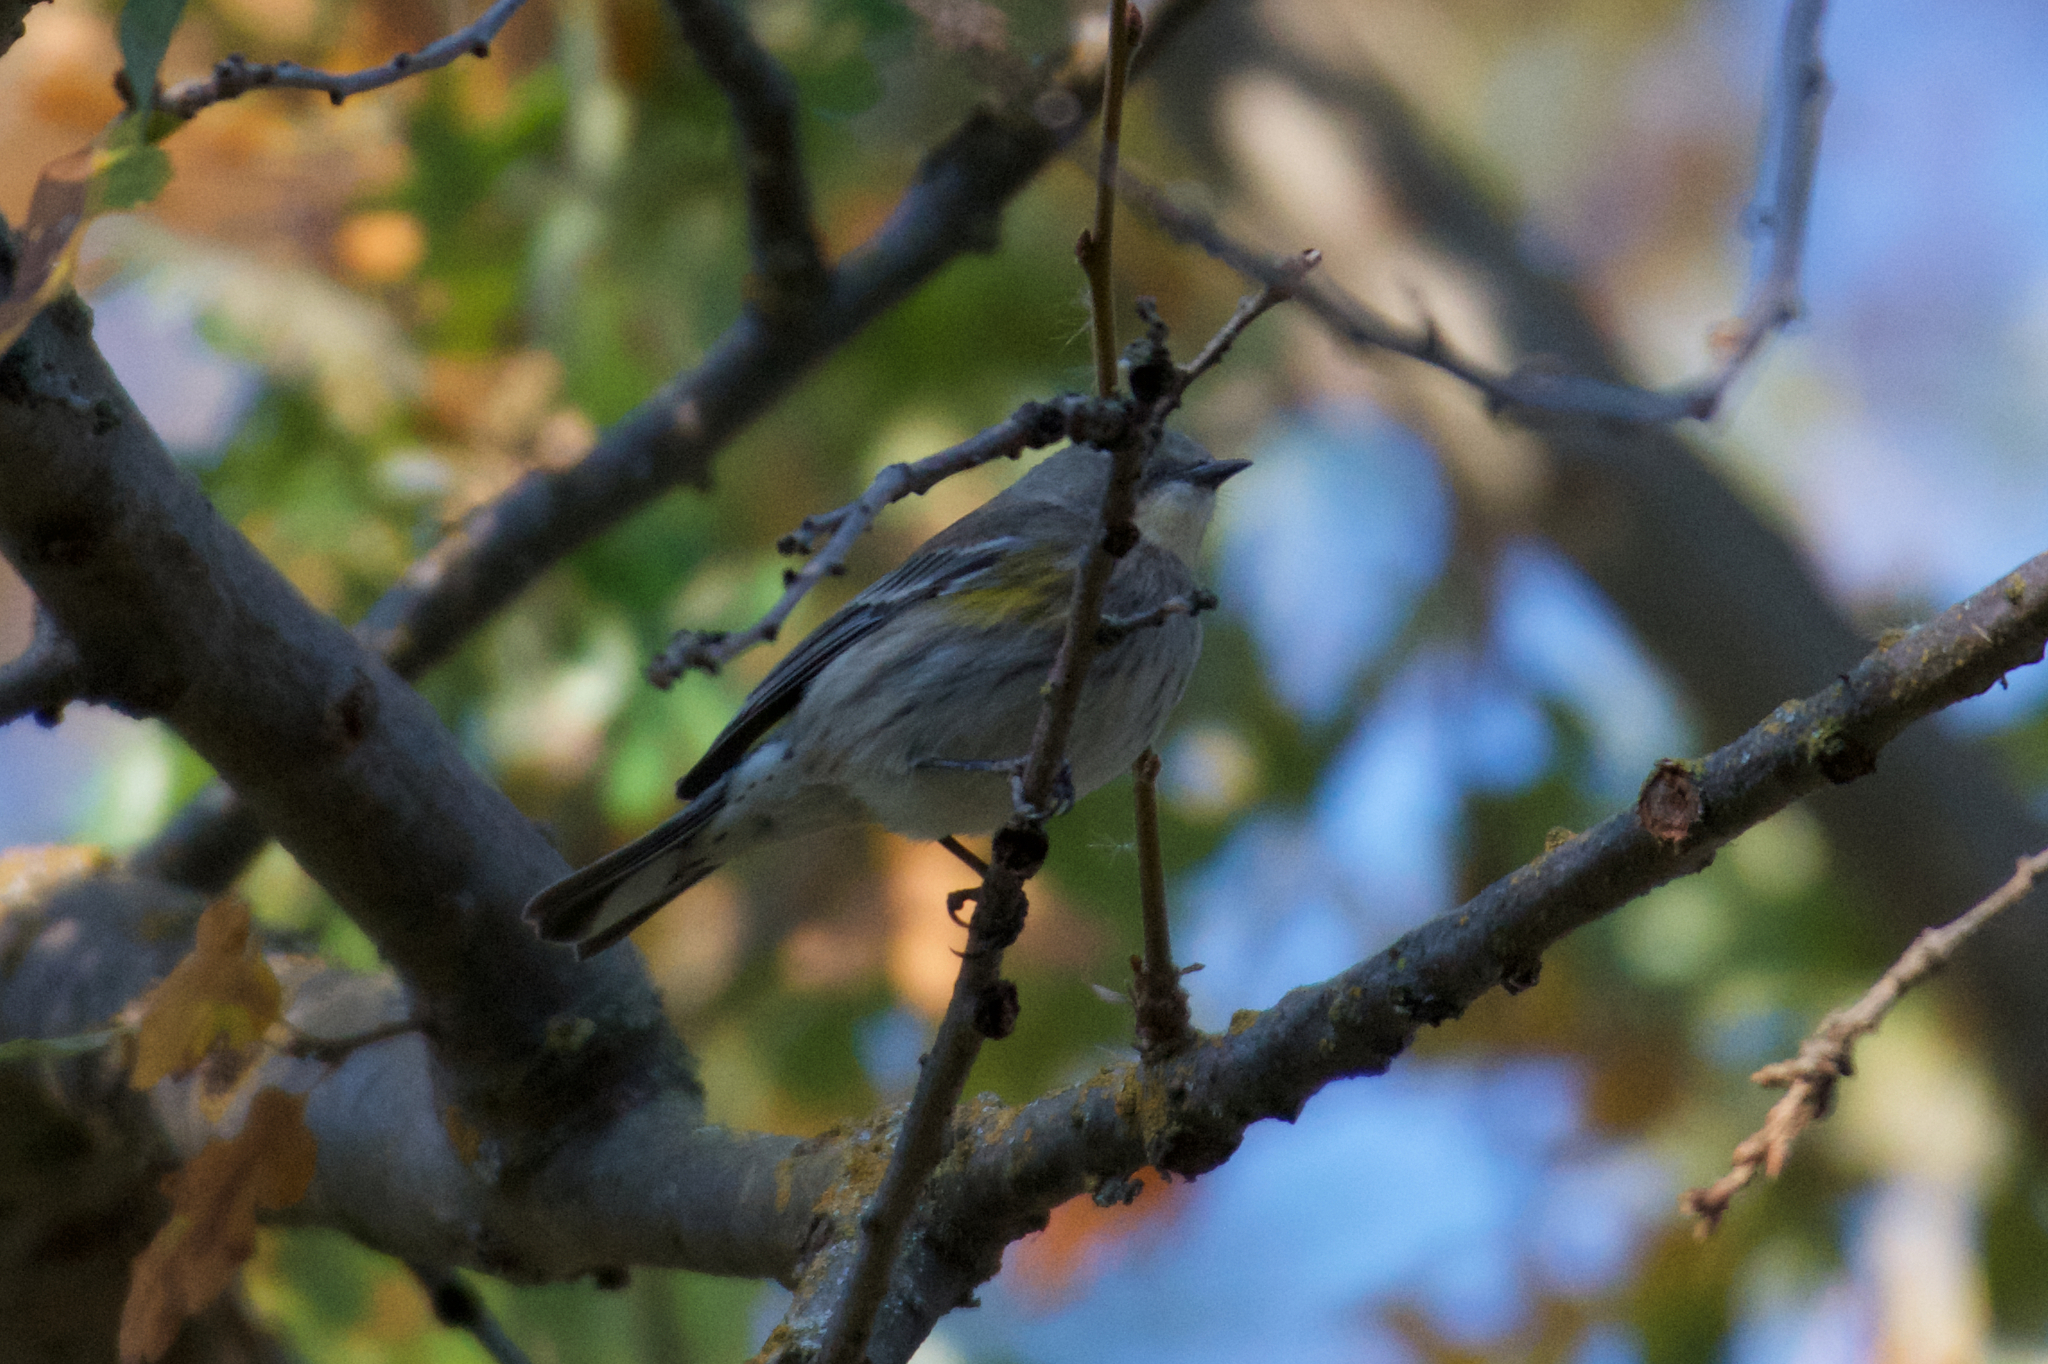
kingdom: Animalia
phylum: Chordata
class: Aves
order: Passeriformes
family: Parulidae
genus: Setophaga
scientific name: Setophaga coronata
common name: Myrtle warbler
